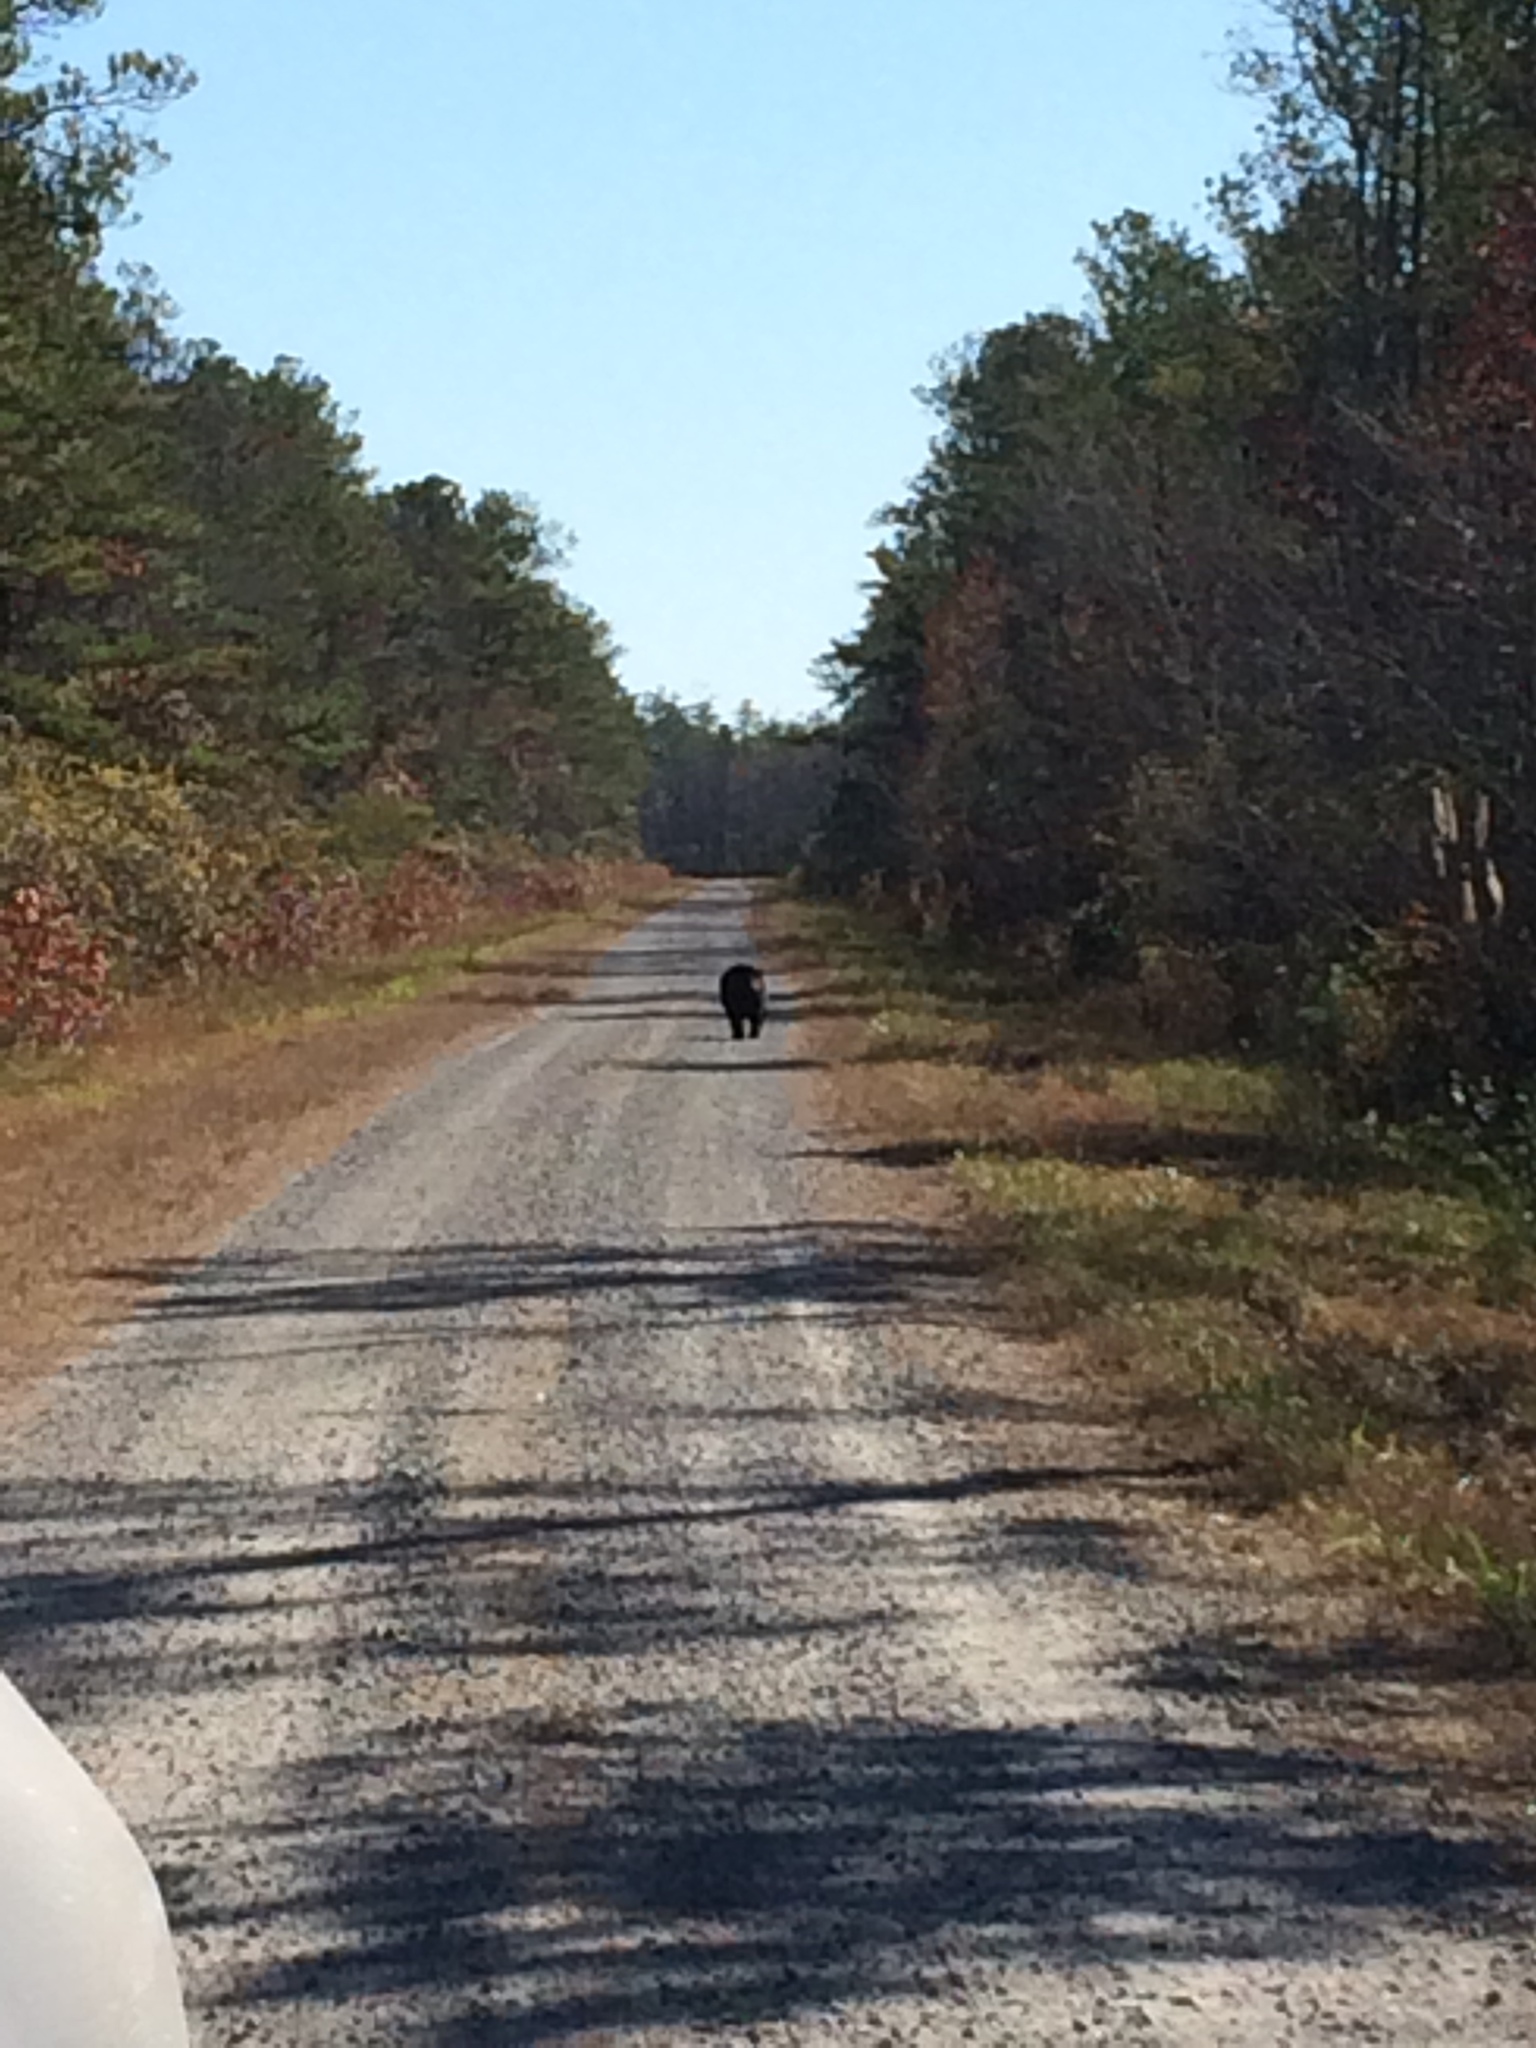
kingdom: Animalia
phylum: Chordata
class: Mammalia
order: Carnivora
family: Ursidae
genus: Ursus
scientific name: Ursus americanus
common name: American black bear
